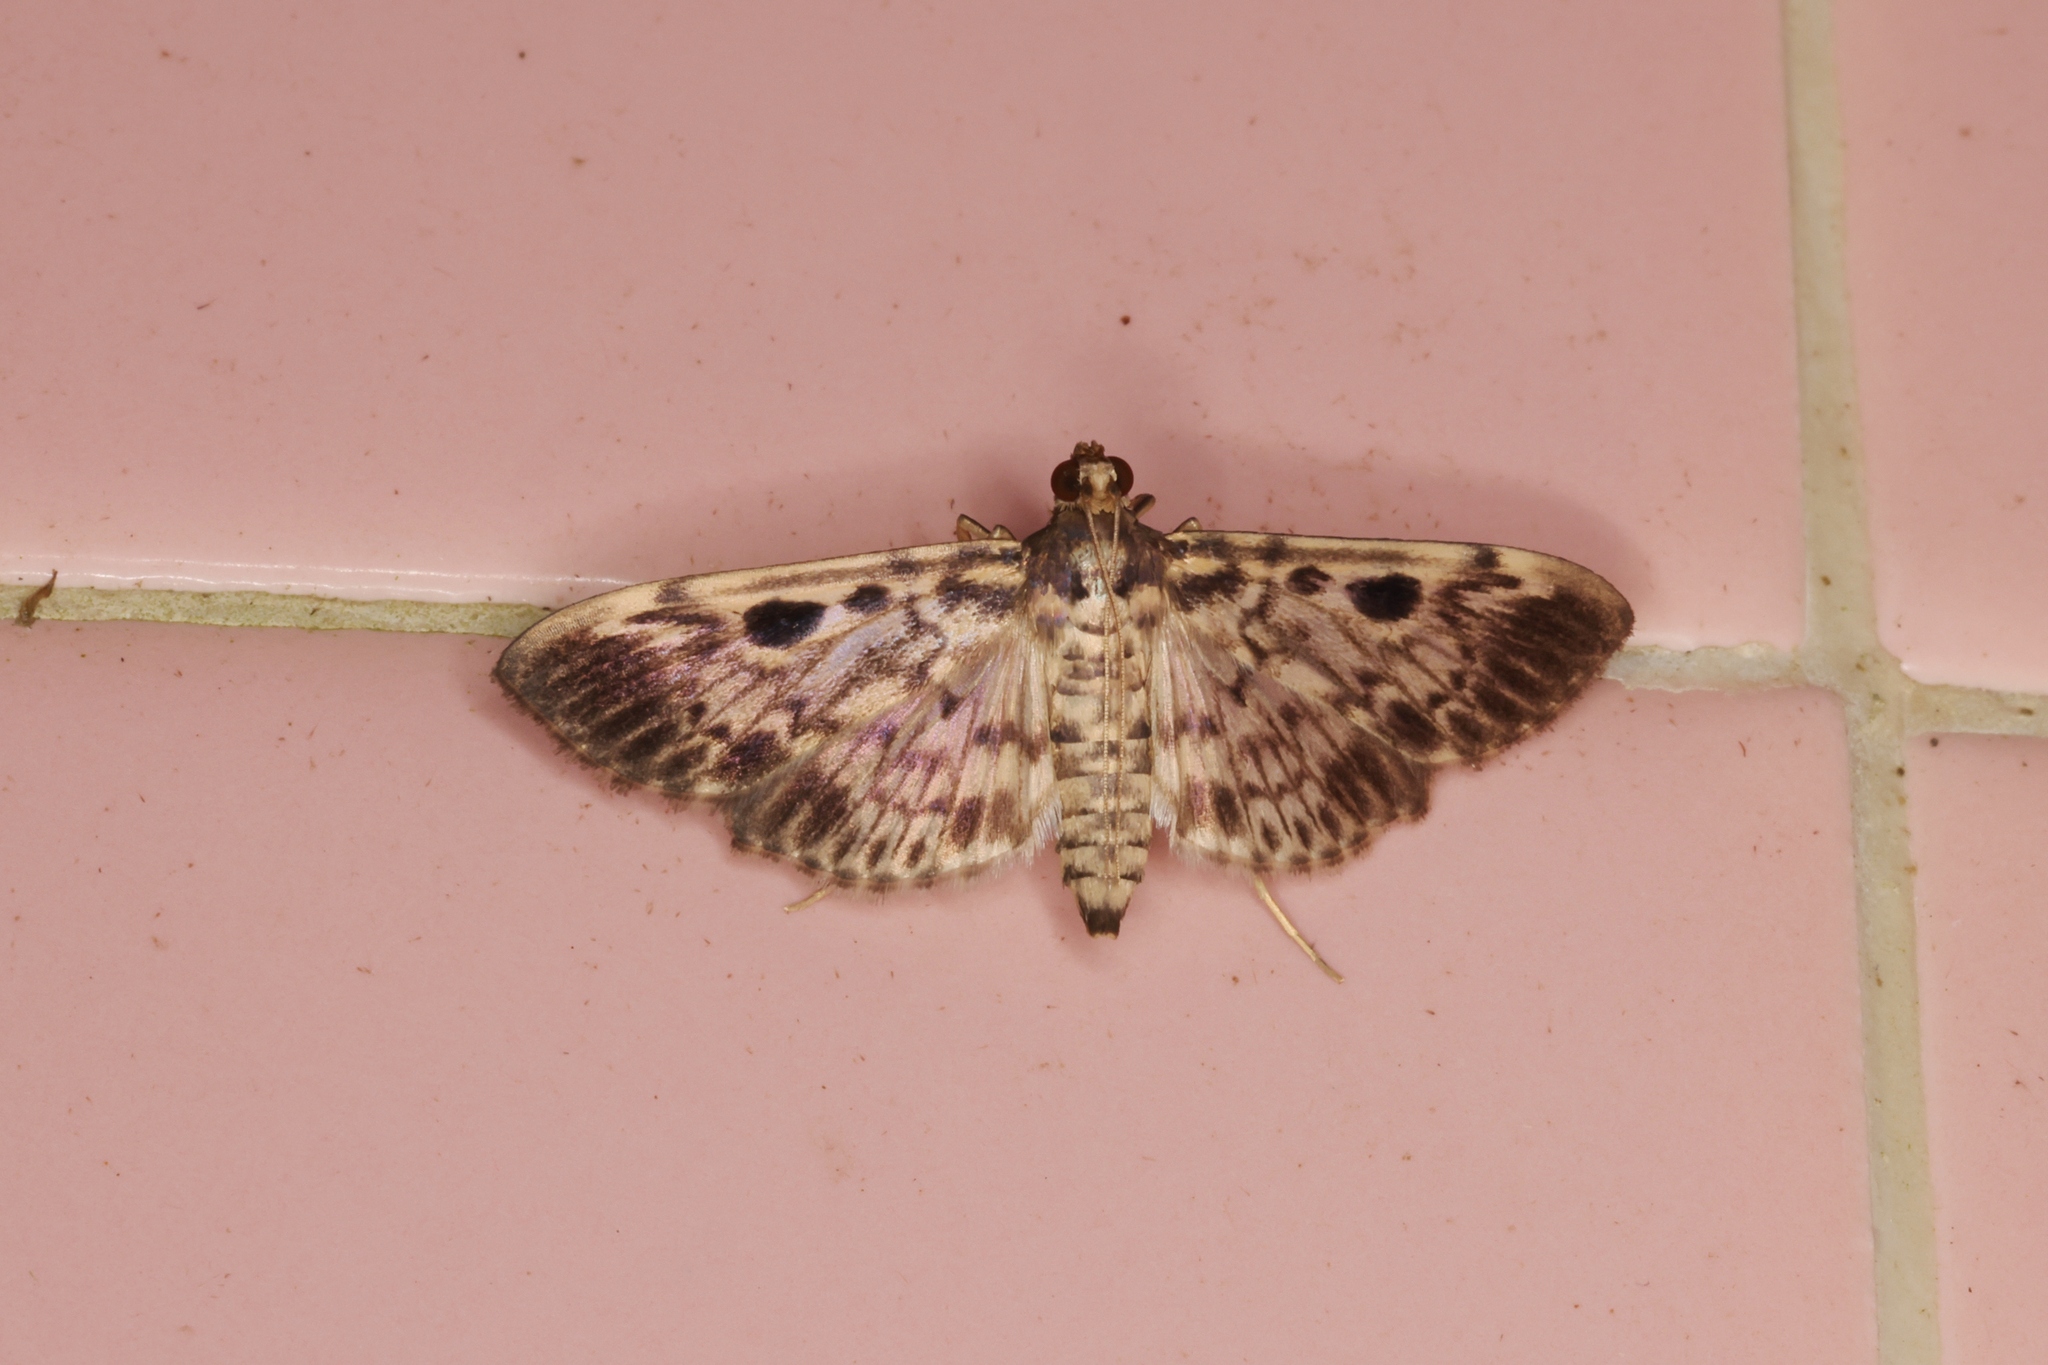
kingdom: Animalia
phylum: Arthropoda
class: Insecta
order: Lepidoptera
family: Crambidae
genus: Rhimphaliodes
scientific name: Rhimphaliodes macrostigma
